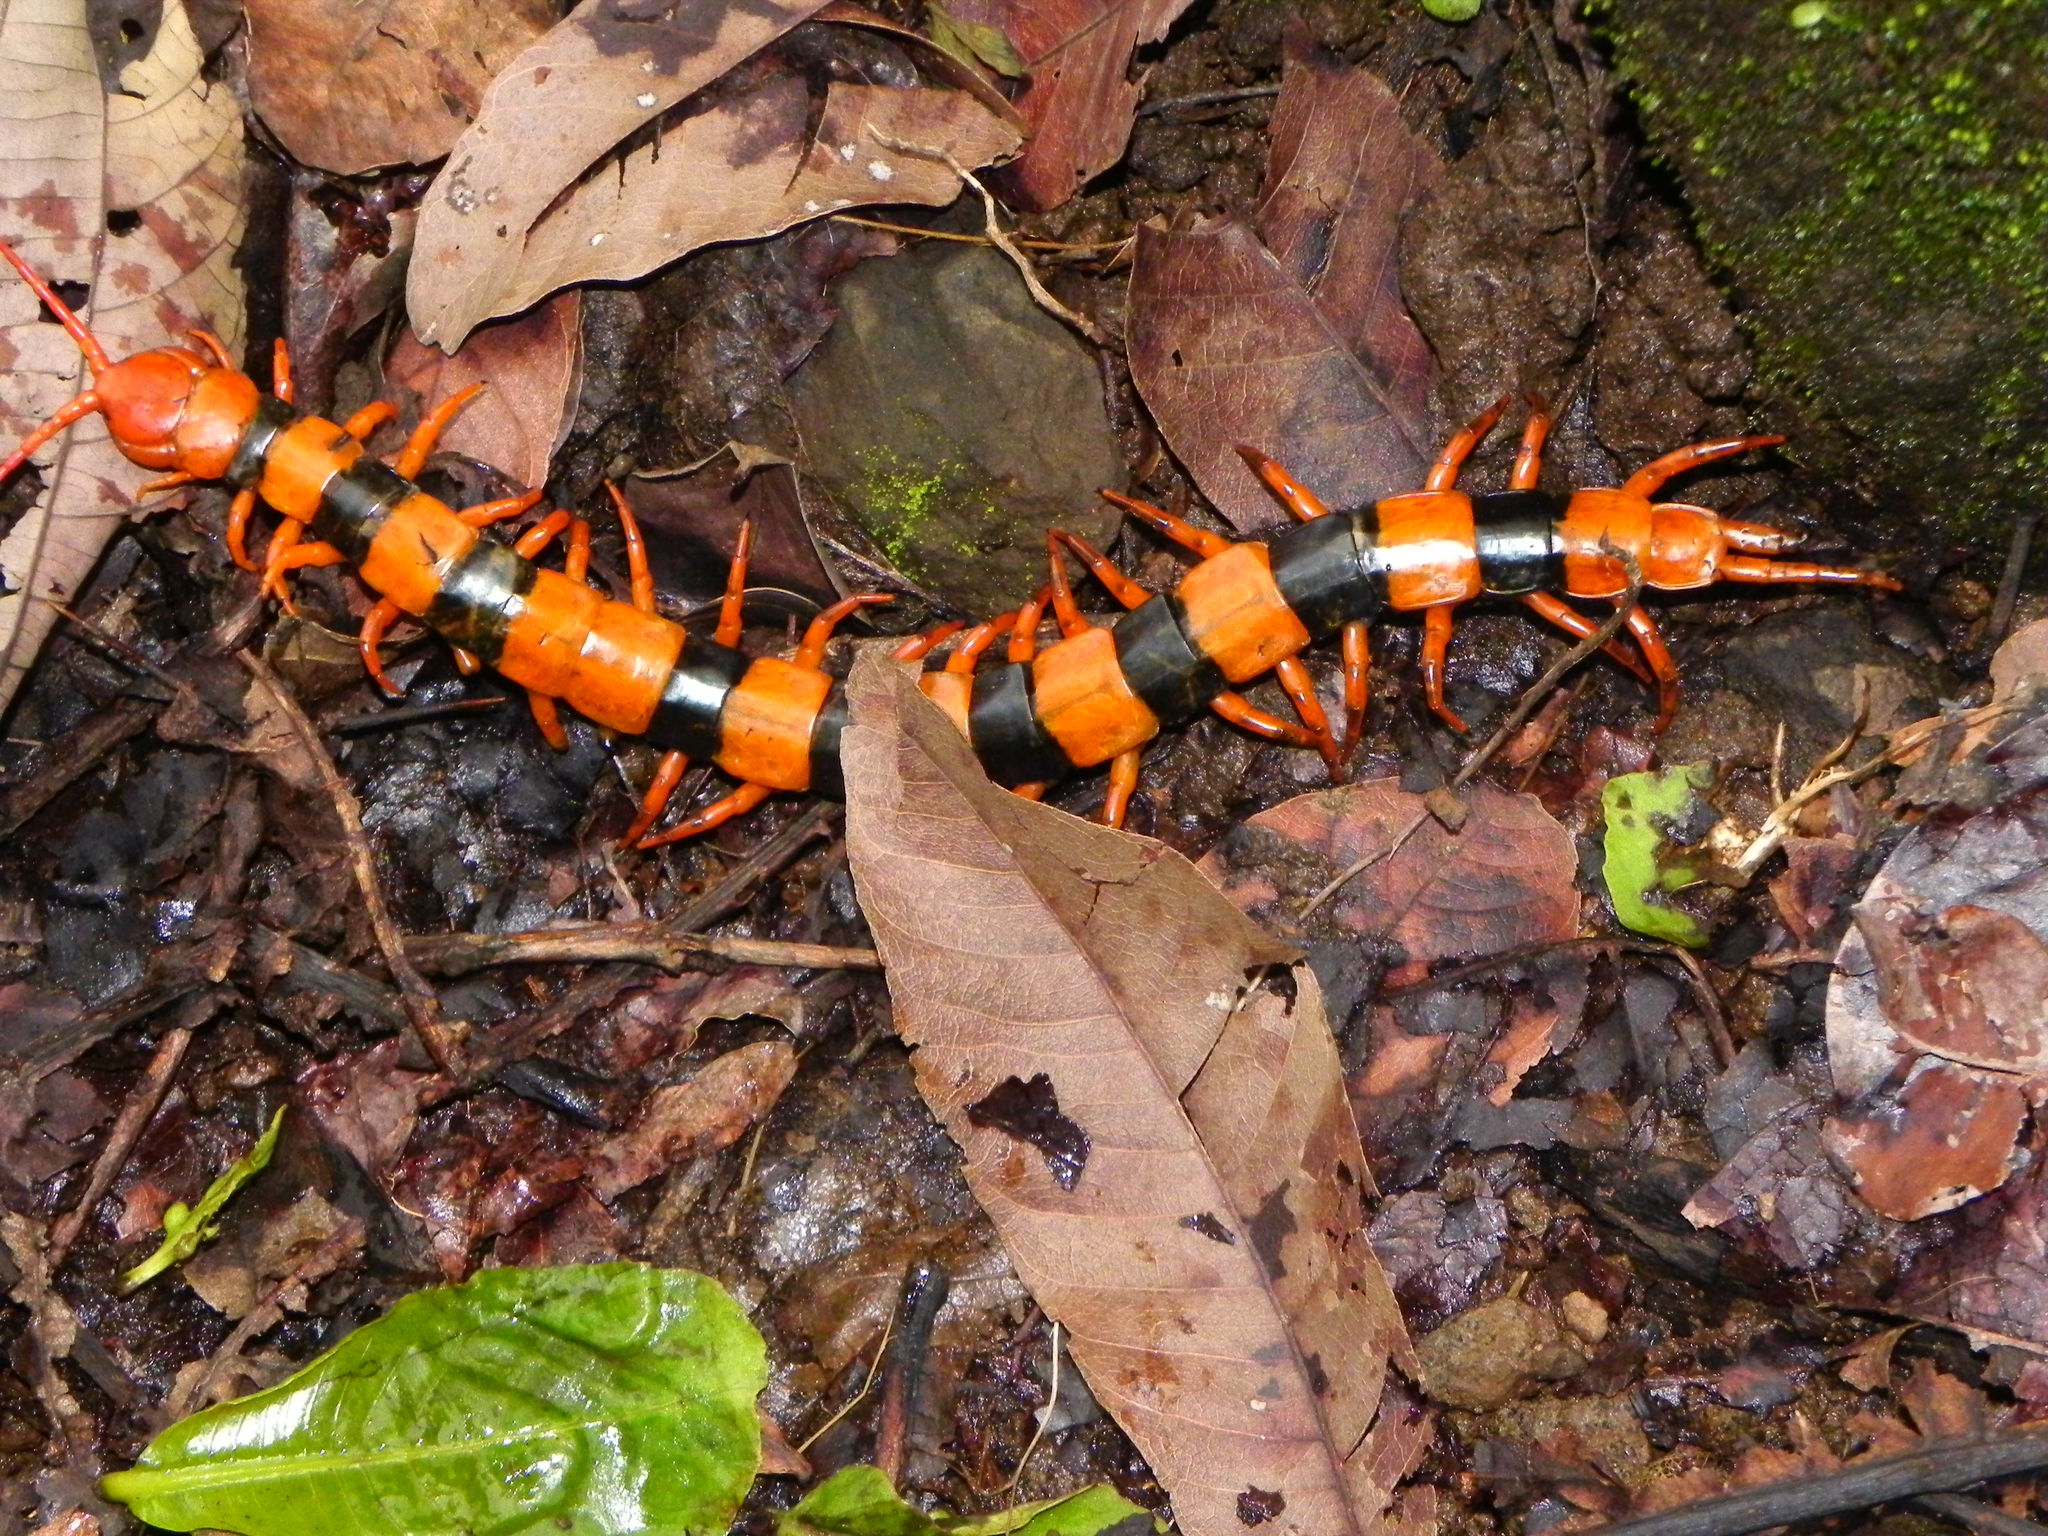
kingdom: Animalia
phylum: Arthropoda
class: Chilopoda
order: Scolopendromorpha
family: Scolopendridae
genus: Scolopendra
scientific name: Scolopendra hardwickei
